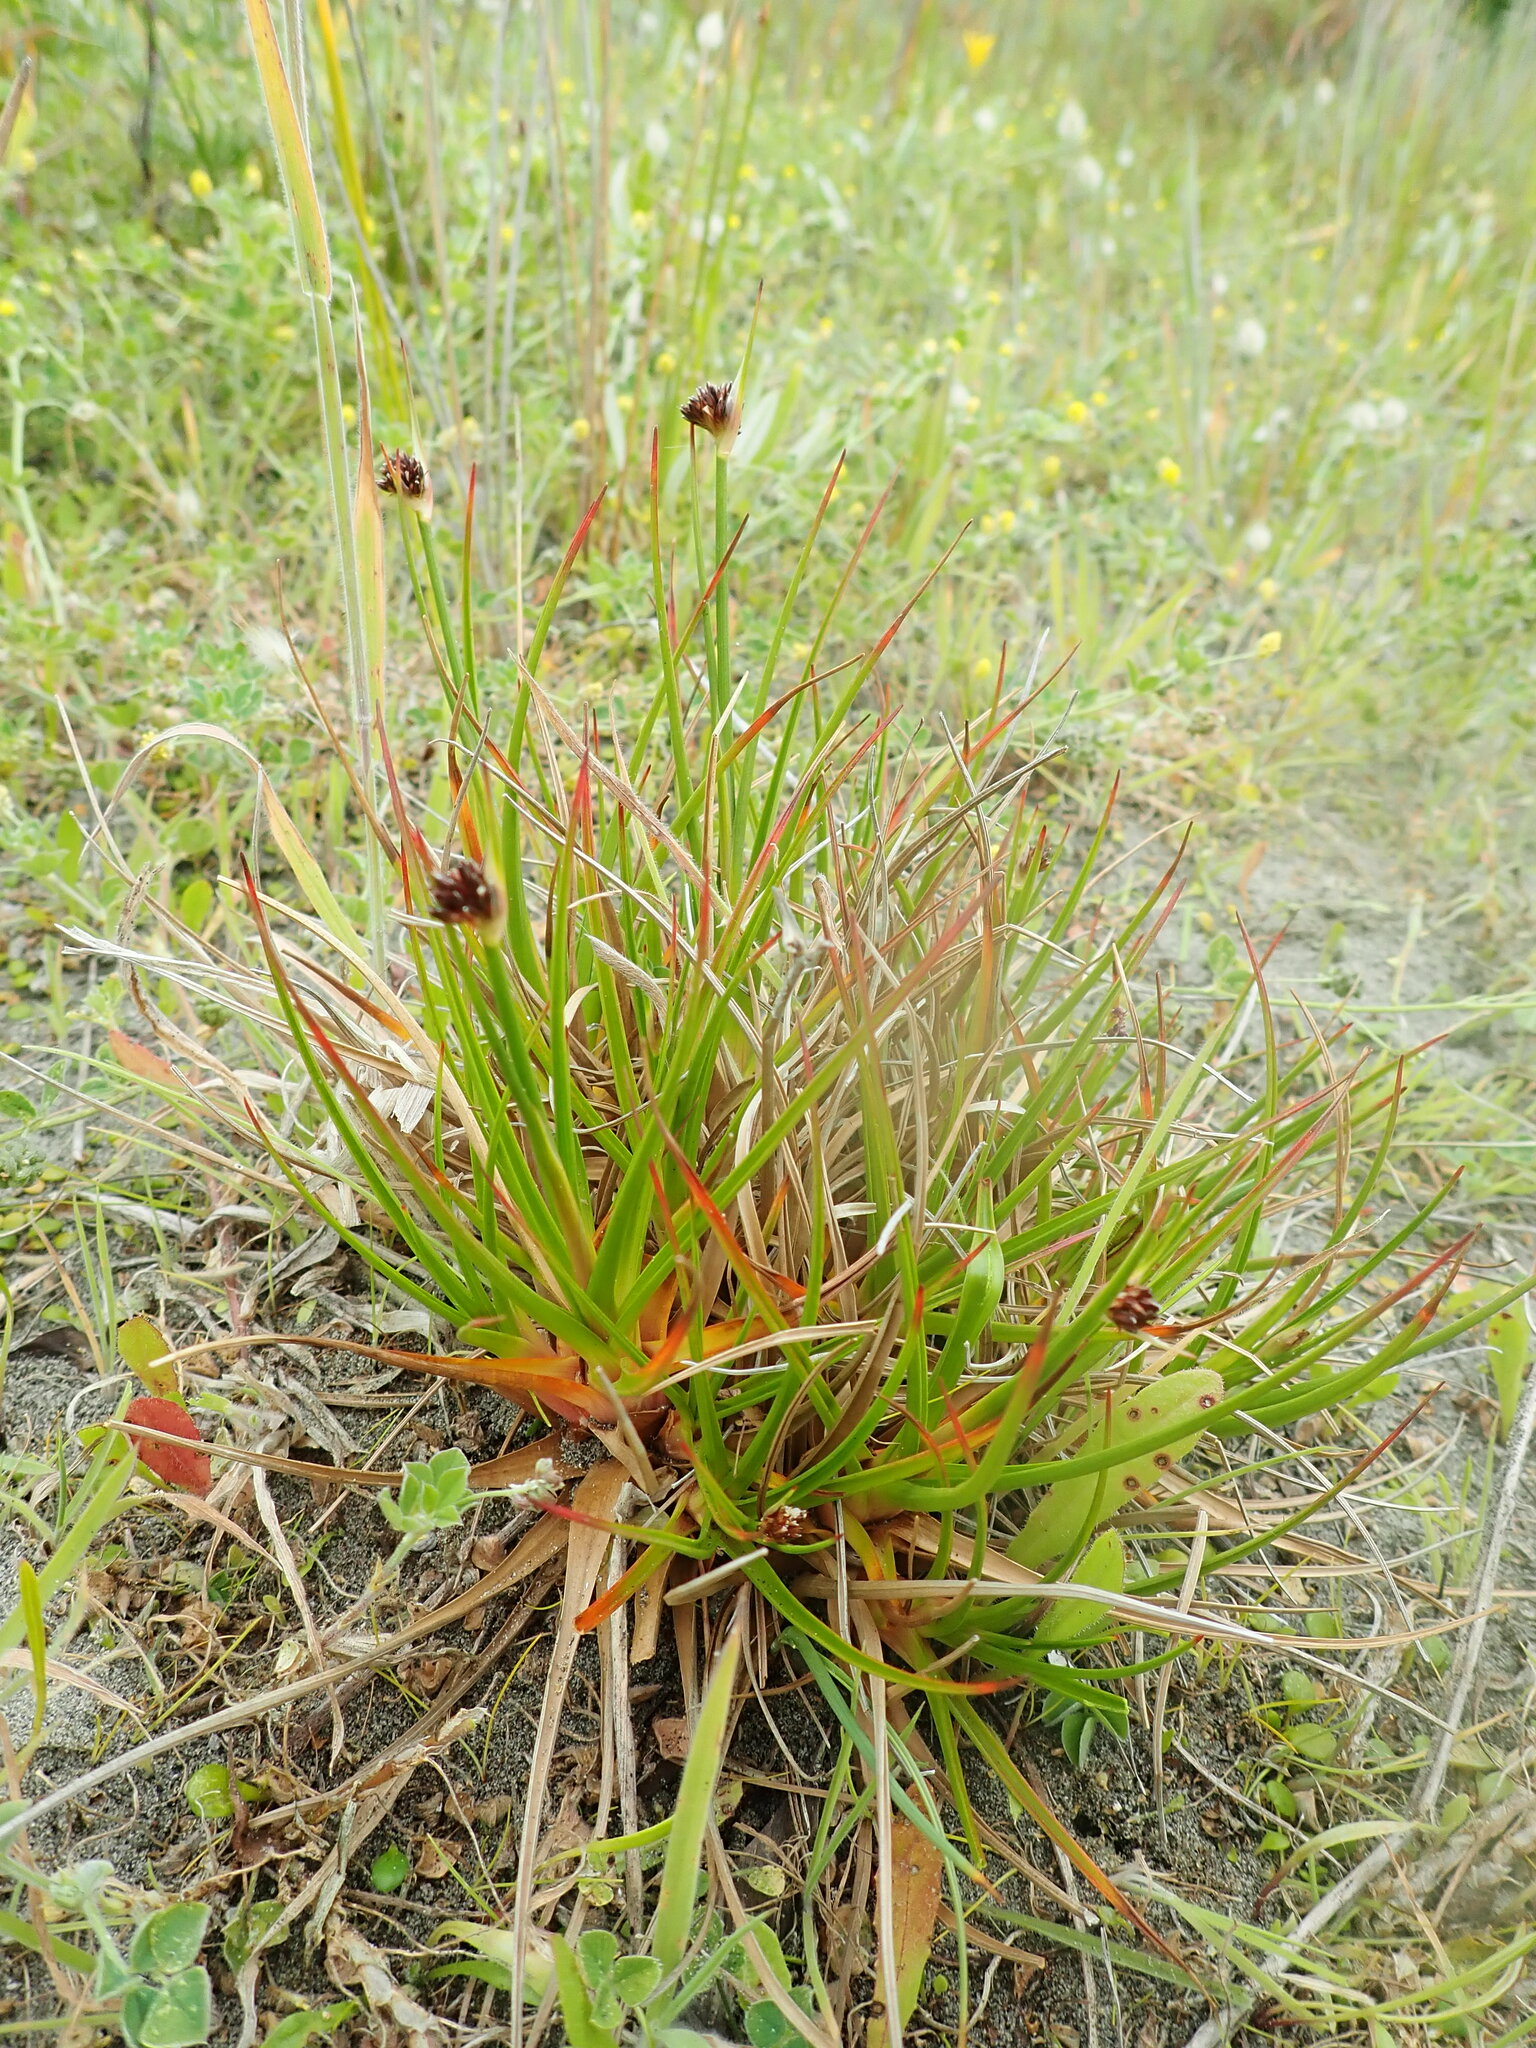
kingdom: Plantae
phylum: Tracheophyta
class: Liliopsida
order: Poales
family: Juncaceae
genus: Juncus
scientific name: Juncus caespiticius
